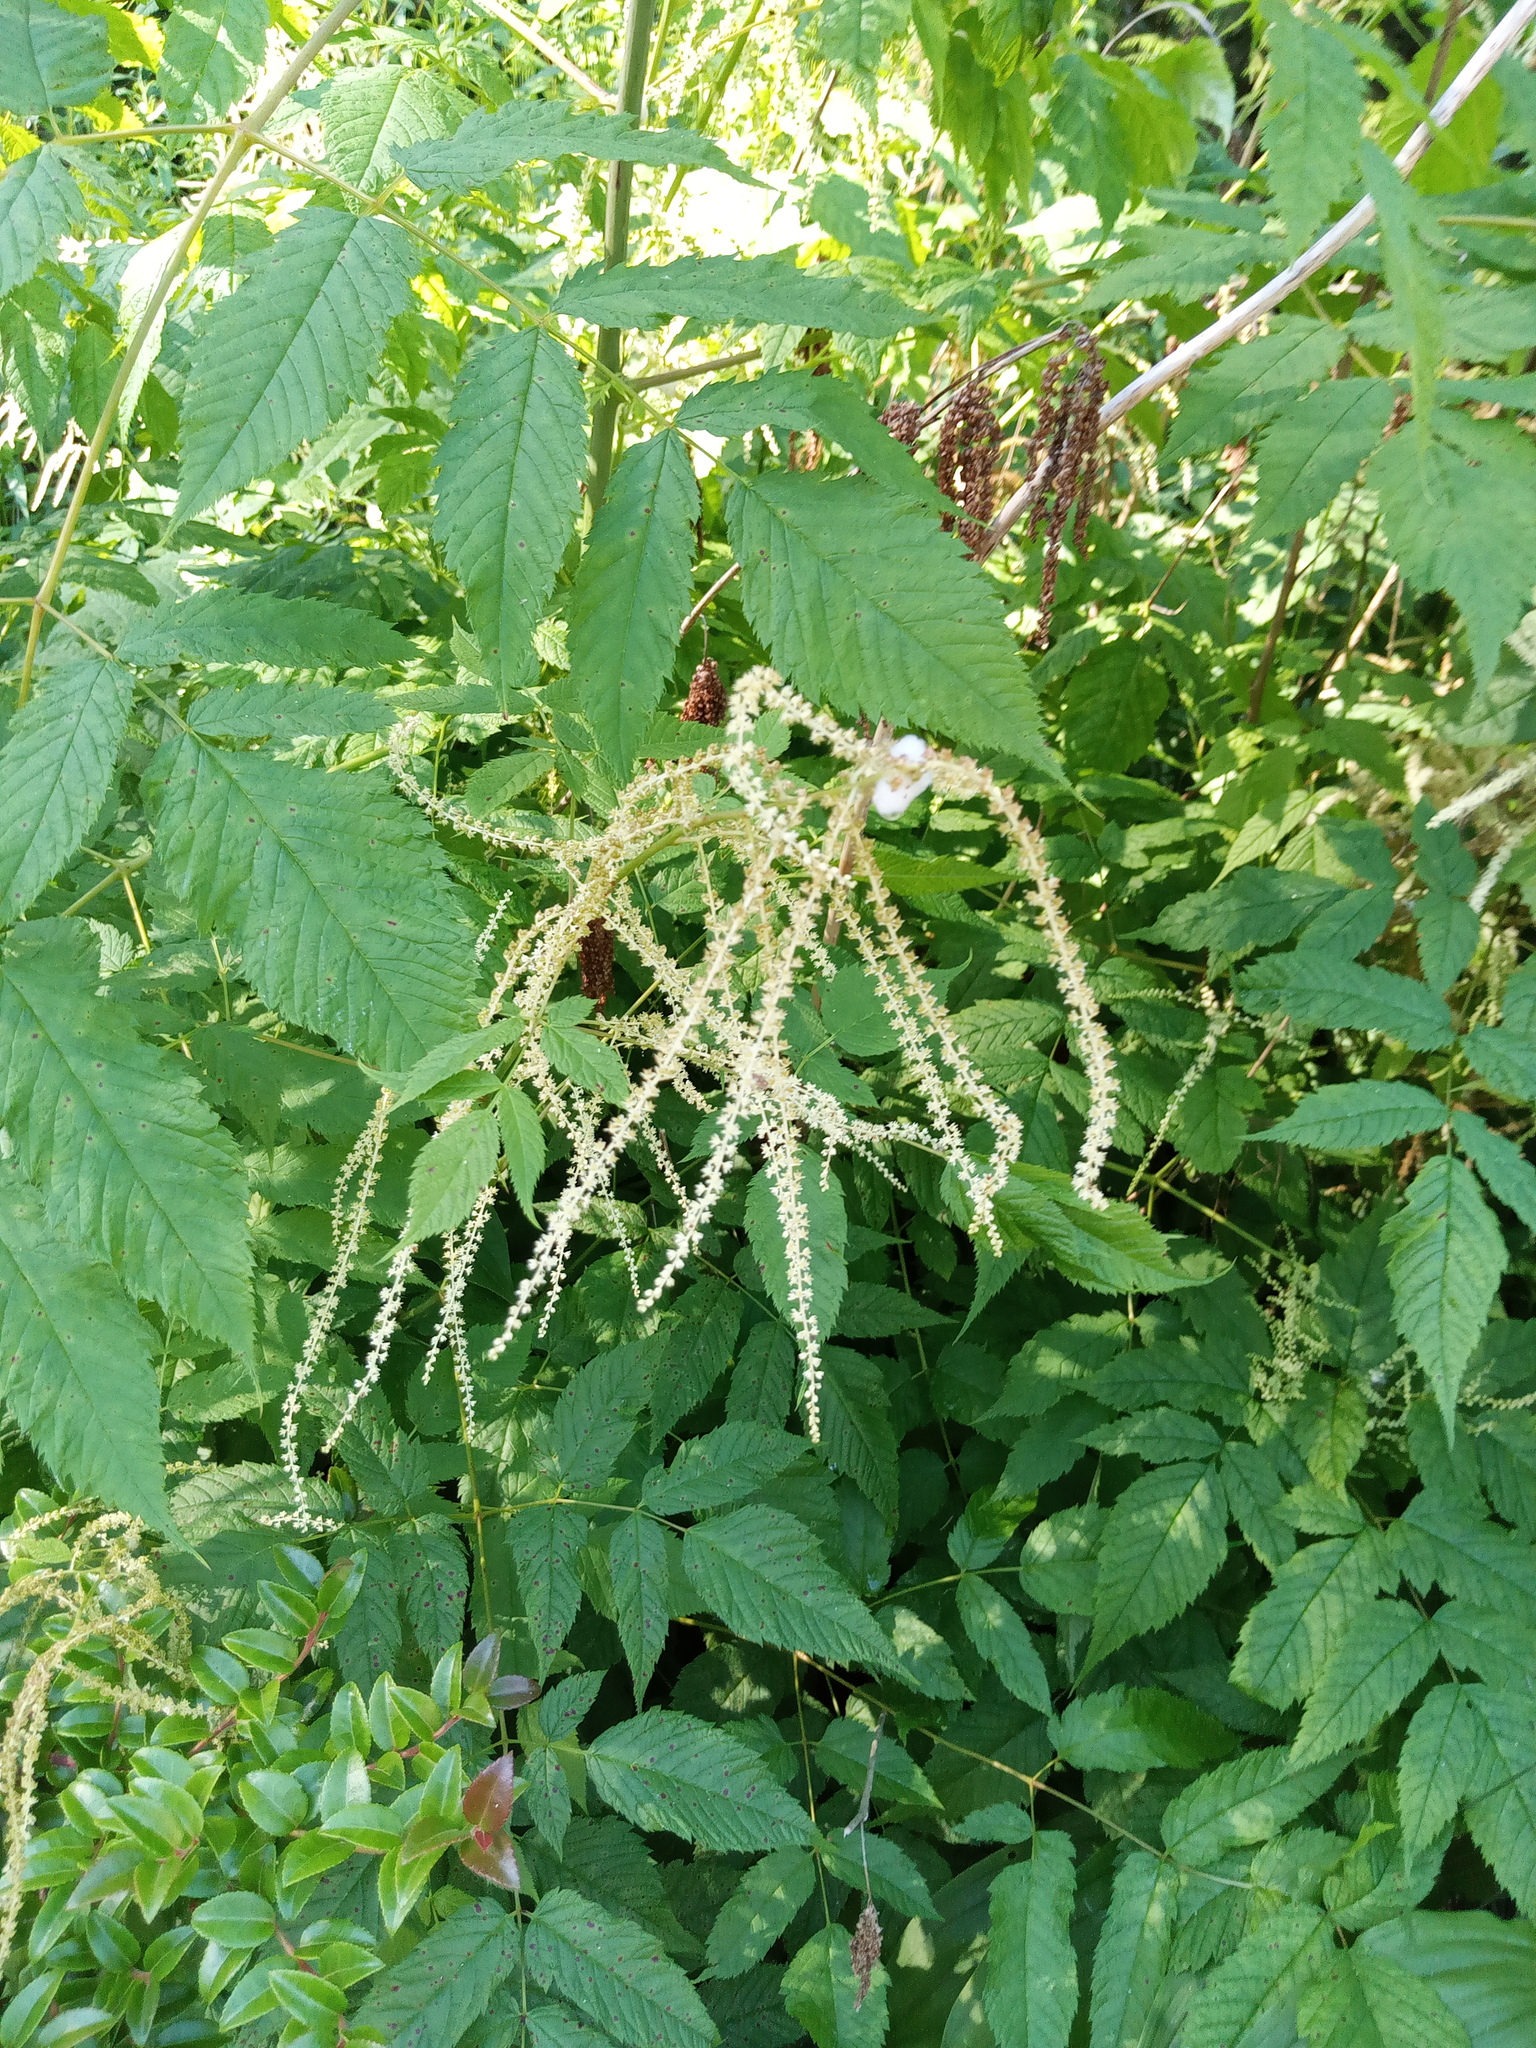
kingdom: Plantae
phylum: Tracheophyta
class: Magnoliopsida
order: Rosales
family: Rosaceae
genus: Aruncus
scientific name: Aruncus dioicus
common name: Buck's-beard
